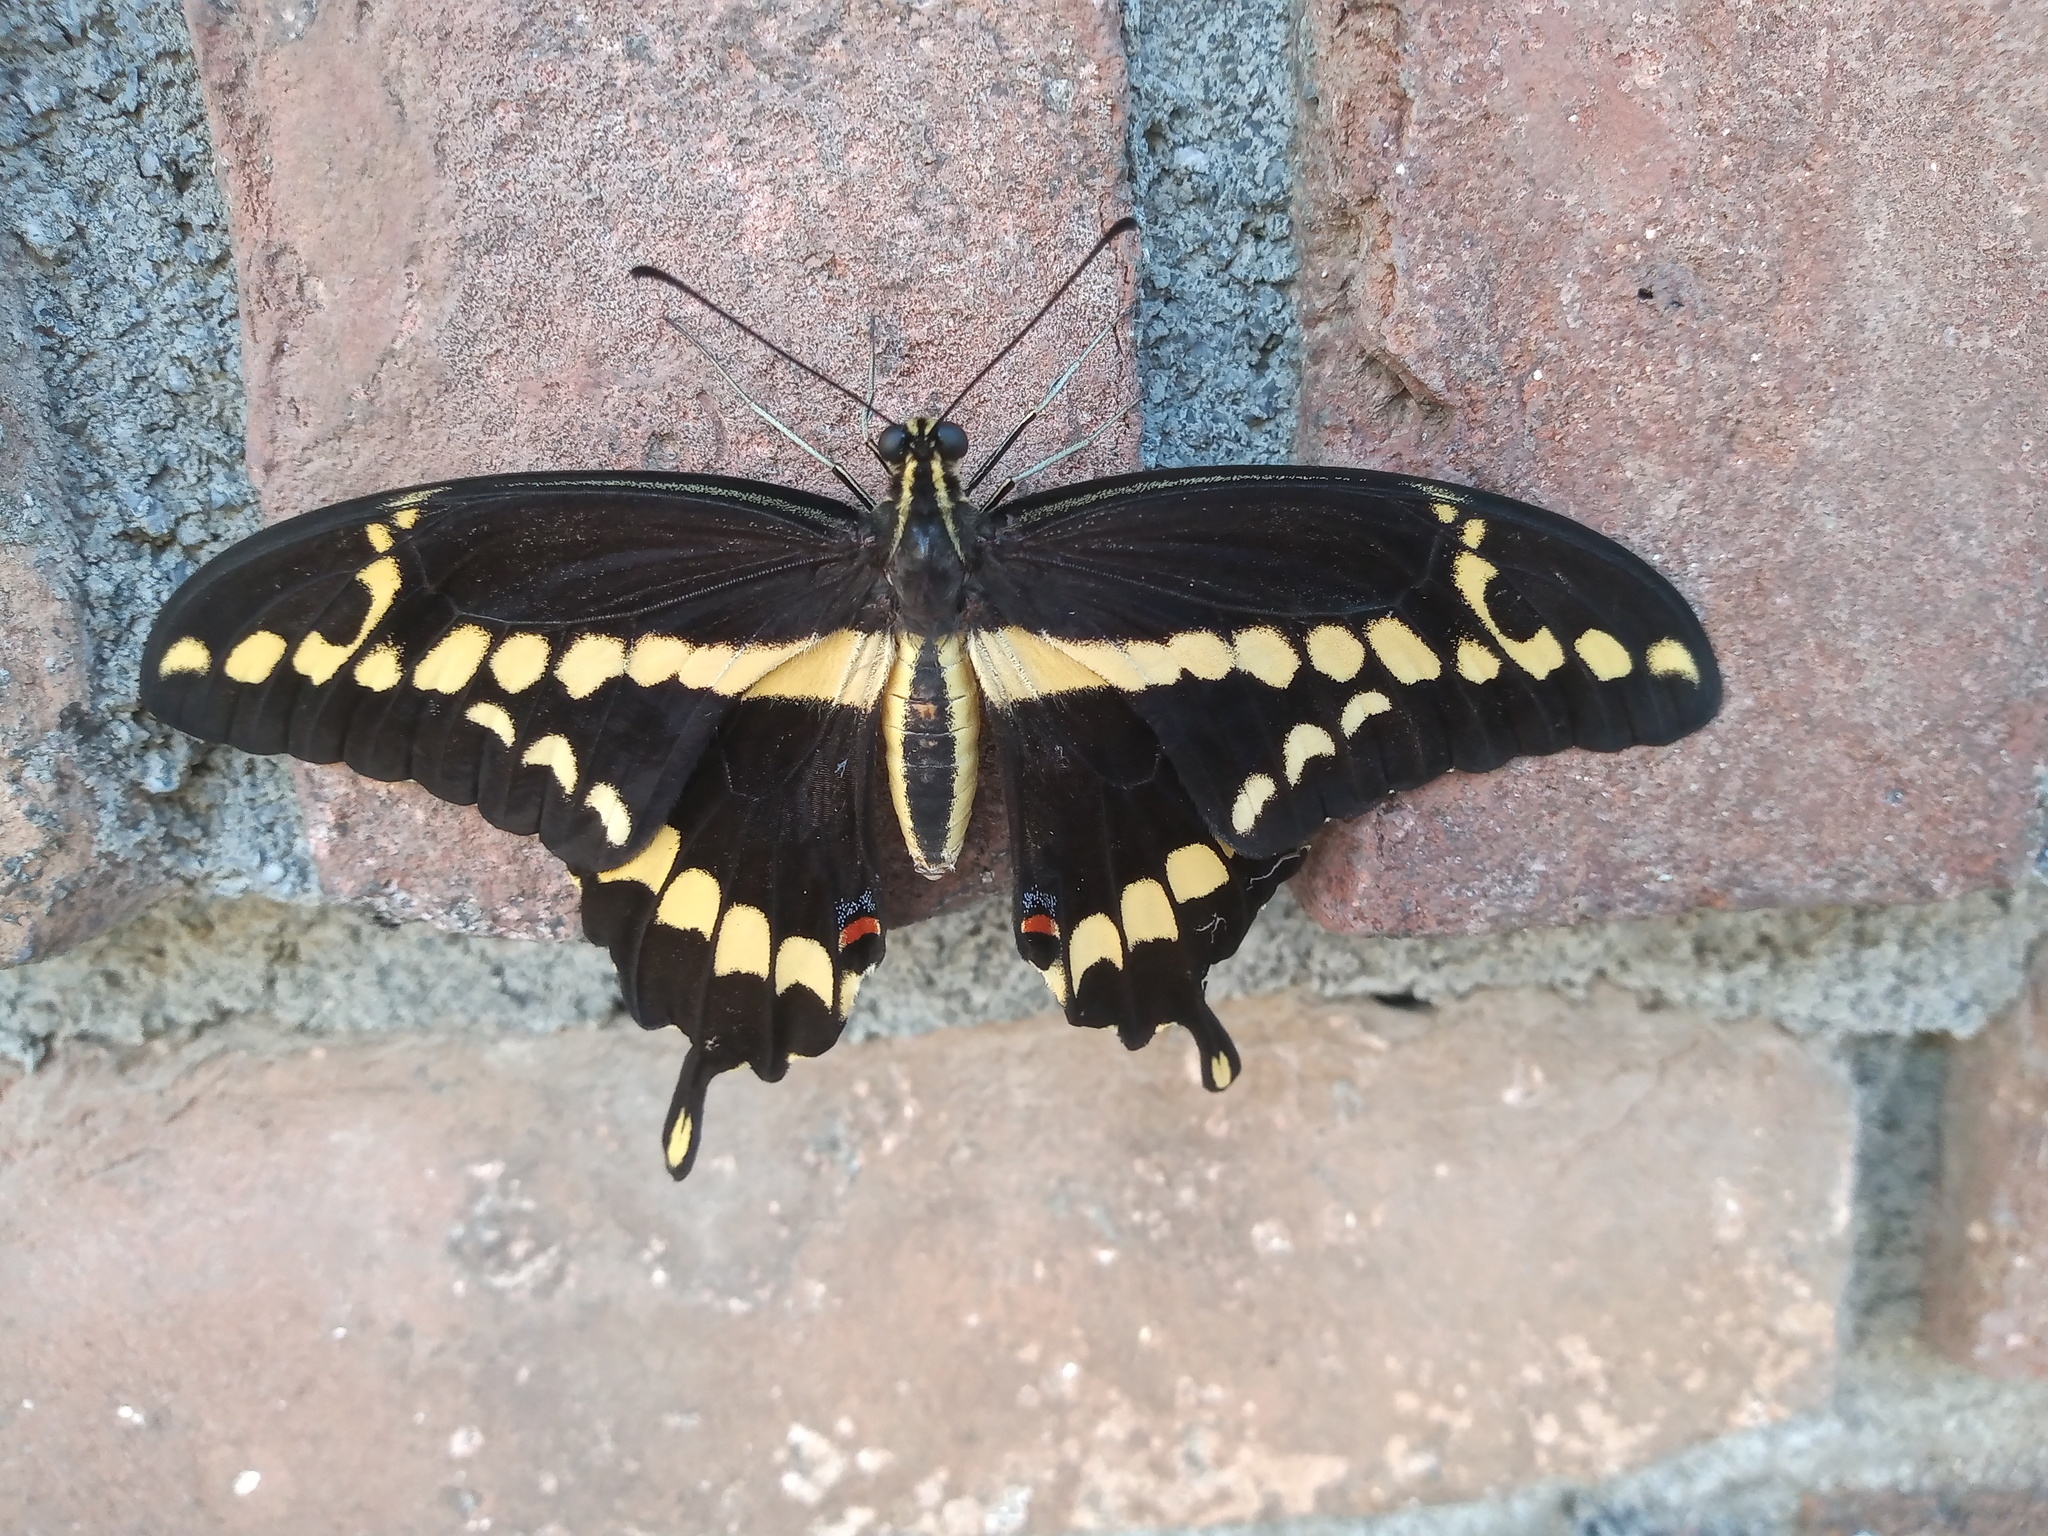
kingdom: Animalia
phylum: Arthropoda
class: Insecta
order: Lepidoptera
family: Papilionidae
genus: Papilio
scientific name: Papilio rumiko
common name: Western giant swallowtail
